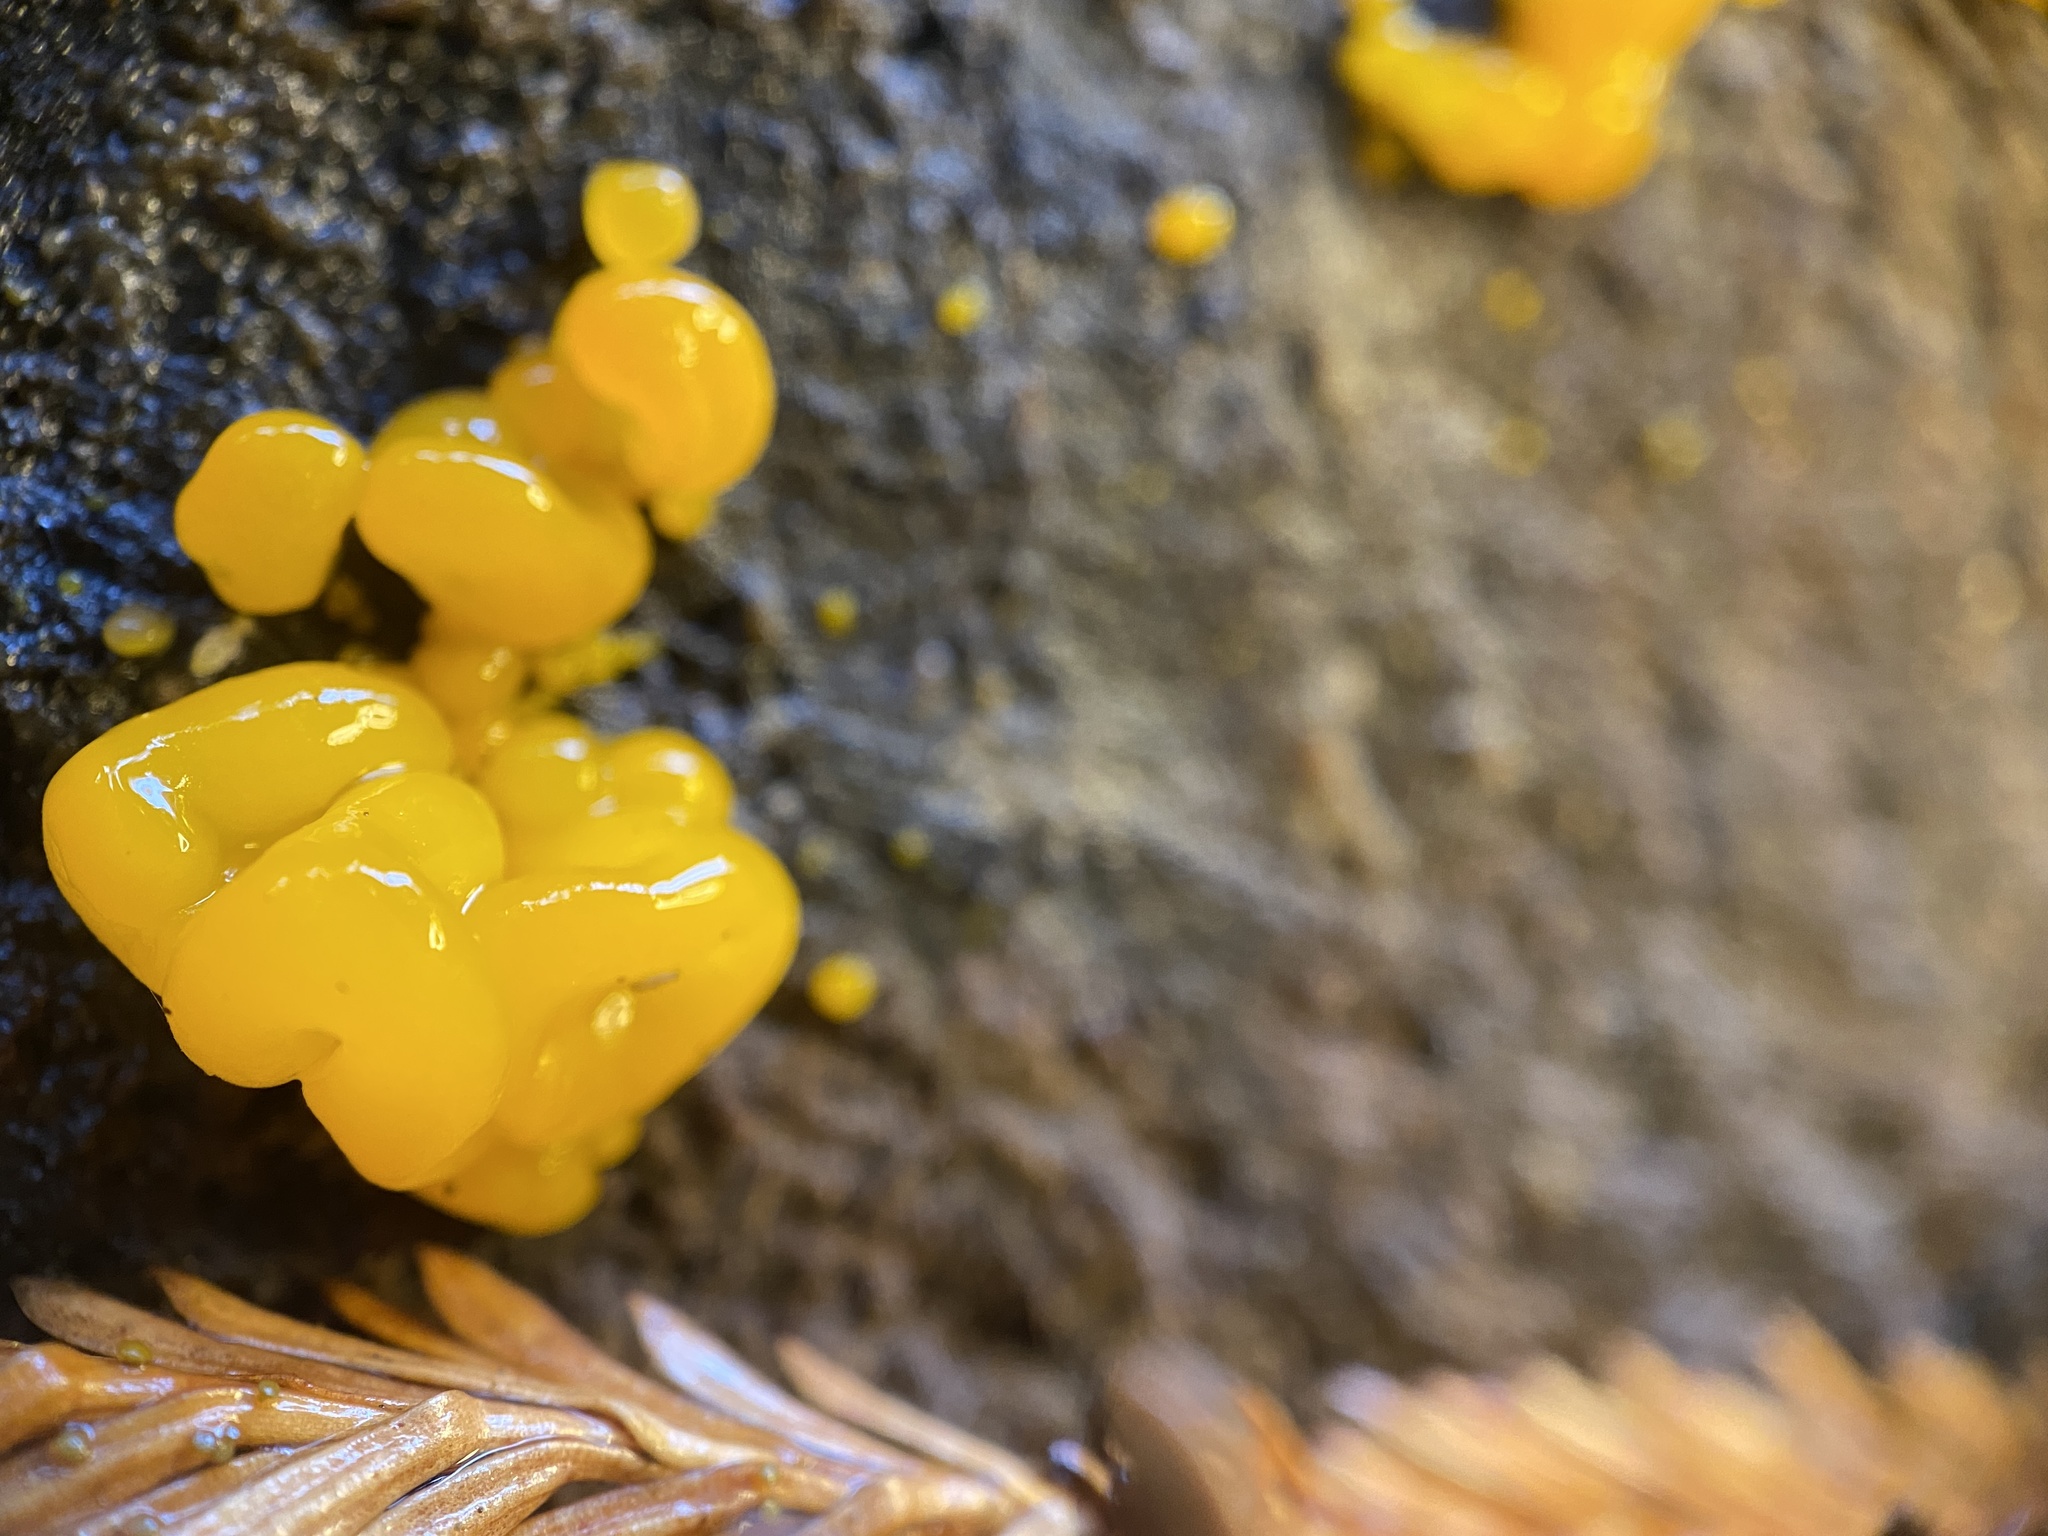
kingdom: Fungi
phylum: Basidiomycota
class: Dacrymycetes
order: Dacrymycetales
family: Dacrymycetaceae
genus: Dacrymyces
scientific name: Dacrymyces chrysospermus
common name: Orange jelly spot
